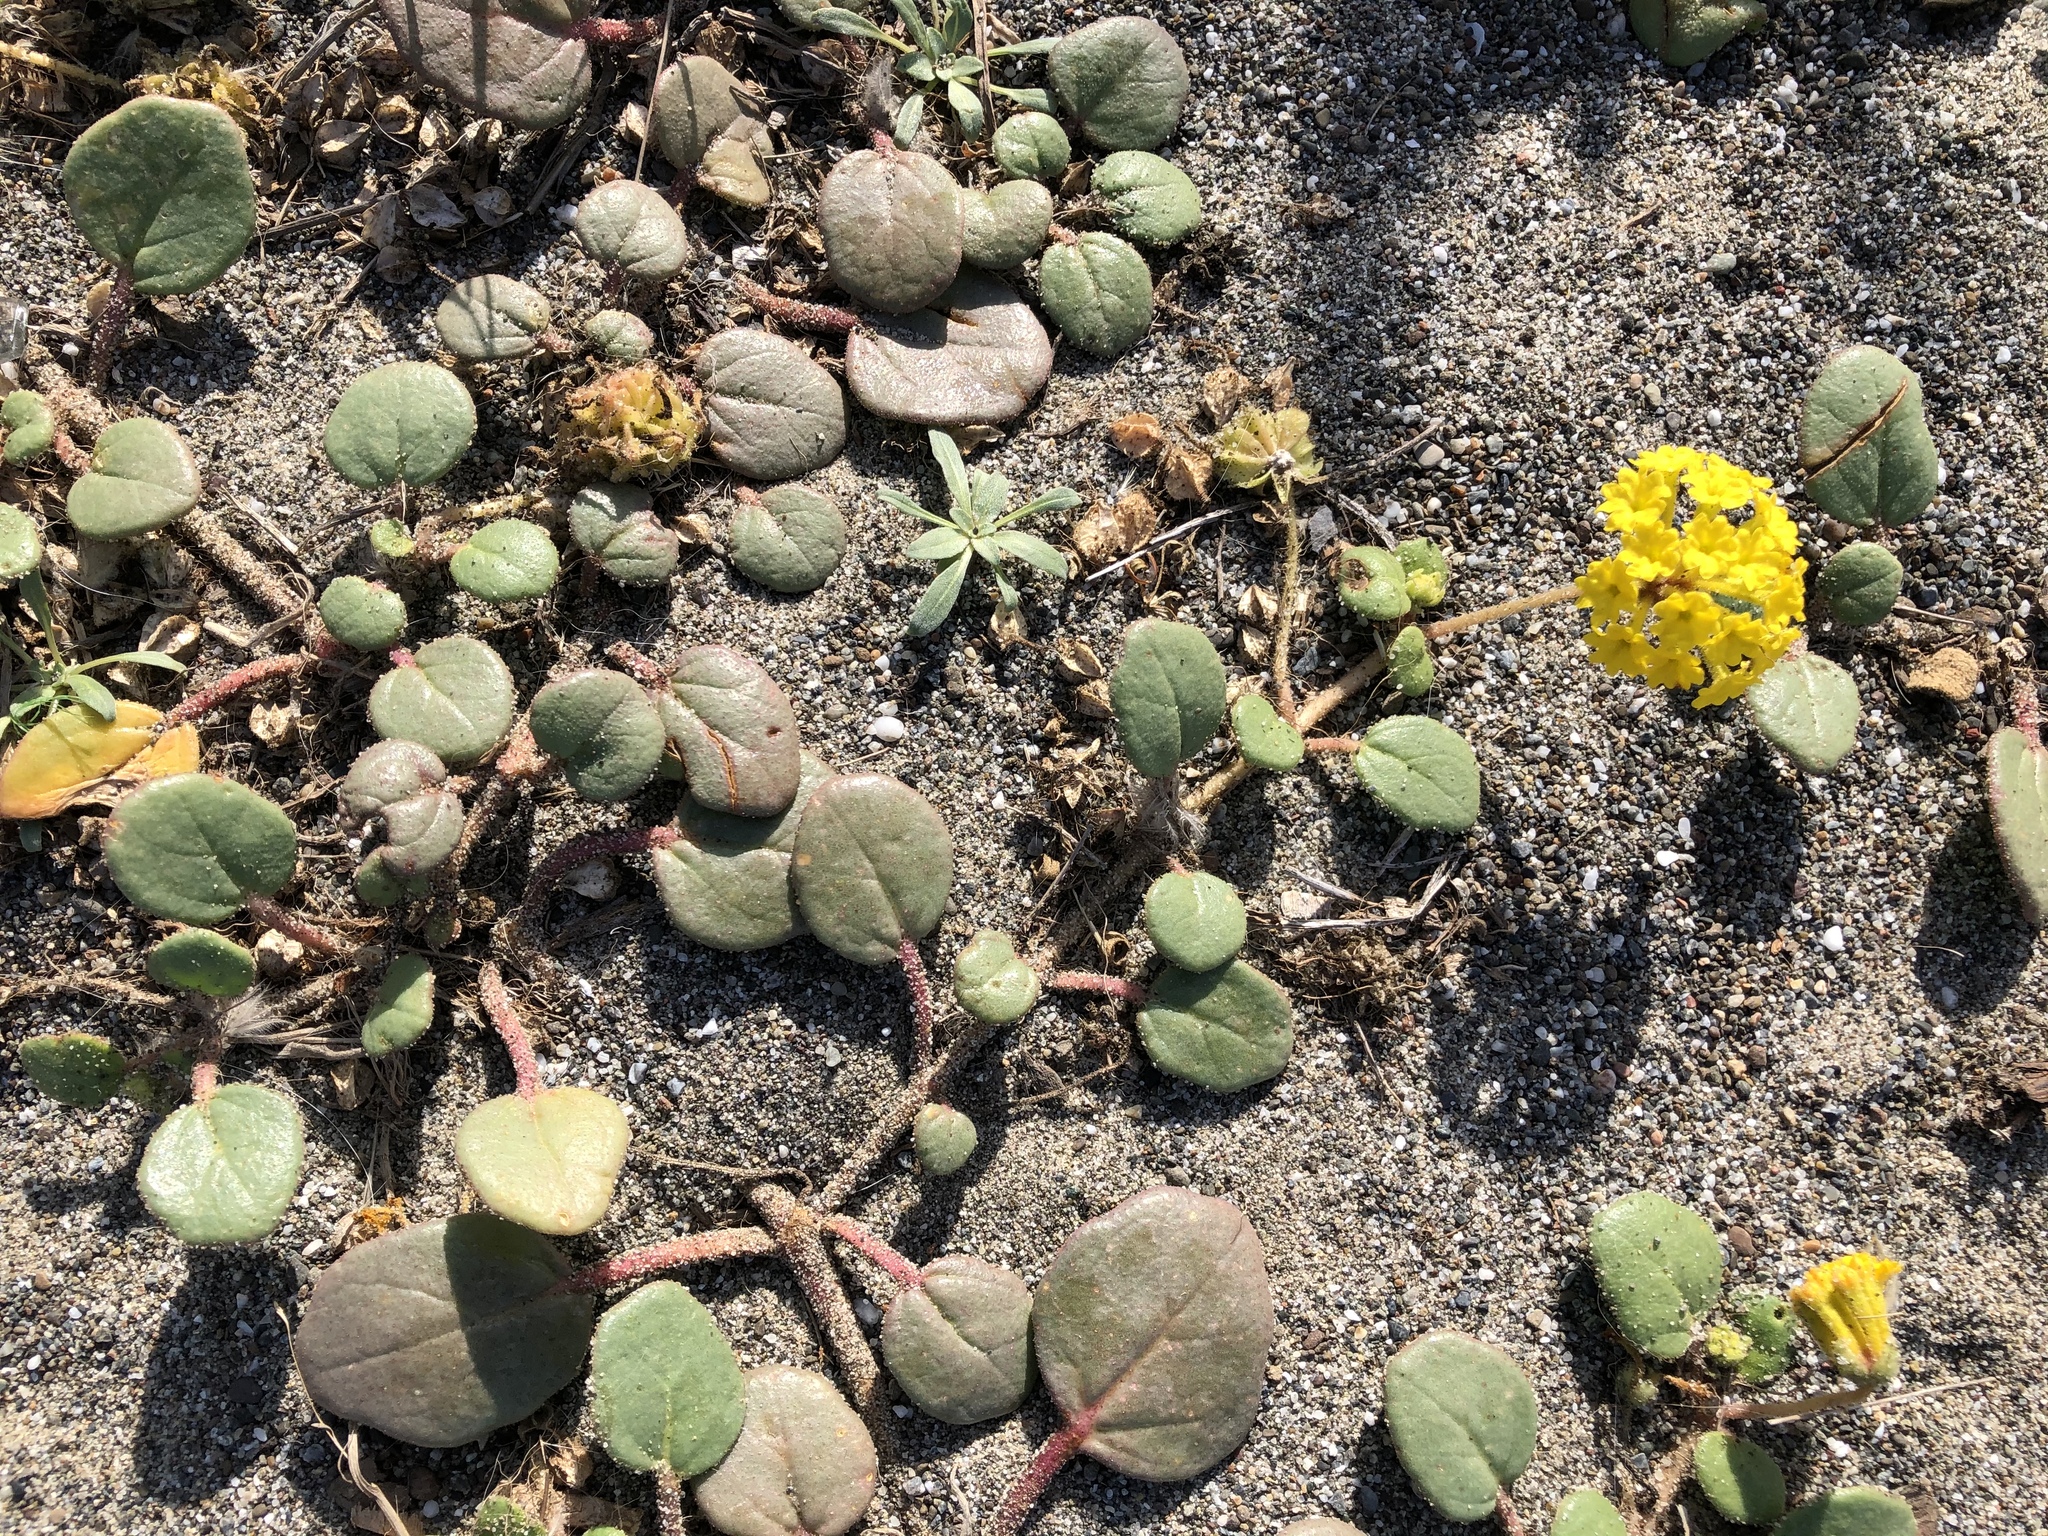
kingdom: Plantae
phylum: Tracheophyta
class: Magnoliopsida
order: Caryophyllales
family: Nyctaginaceae
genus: Abronia
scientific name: Abronia latifolia
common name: Yellow sand-verbena
